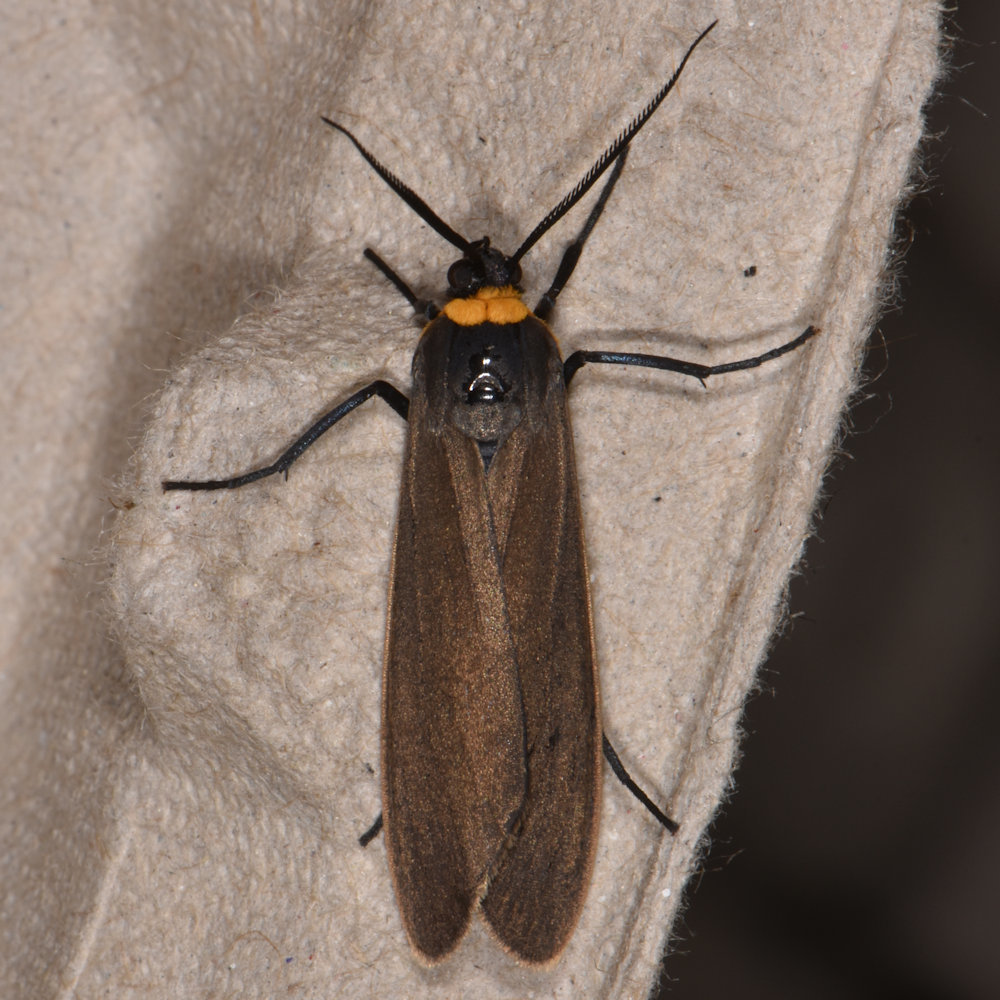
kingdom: Animalia
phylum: Arthropoda
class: Insecta
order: Lepidoptera
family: Erebidae
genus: Cisseps
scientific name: Cisseps fulvicollis
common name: Yellow-collared scape moth
